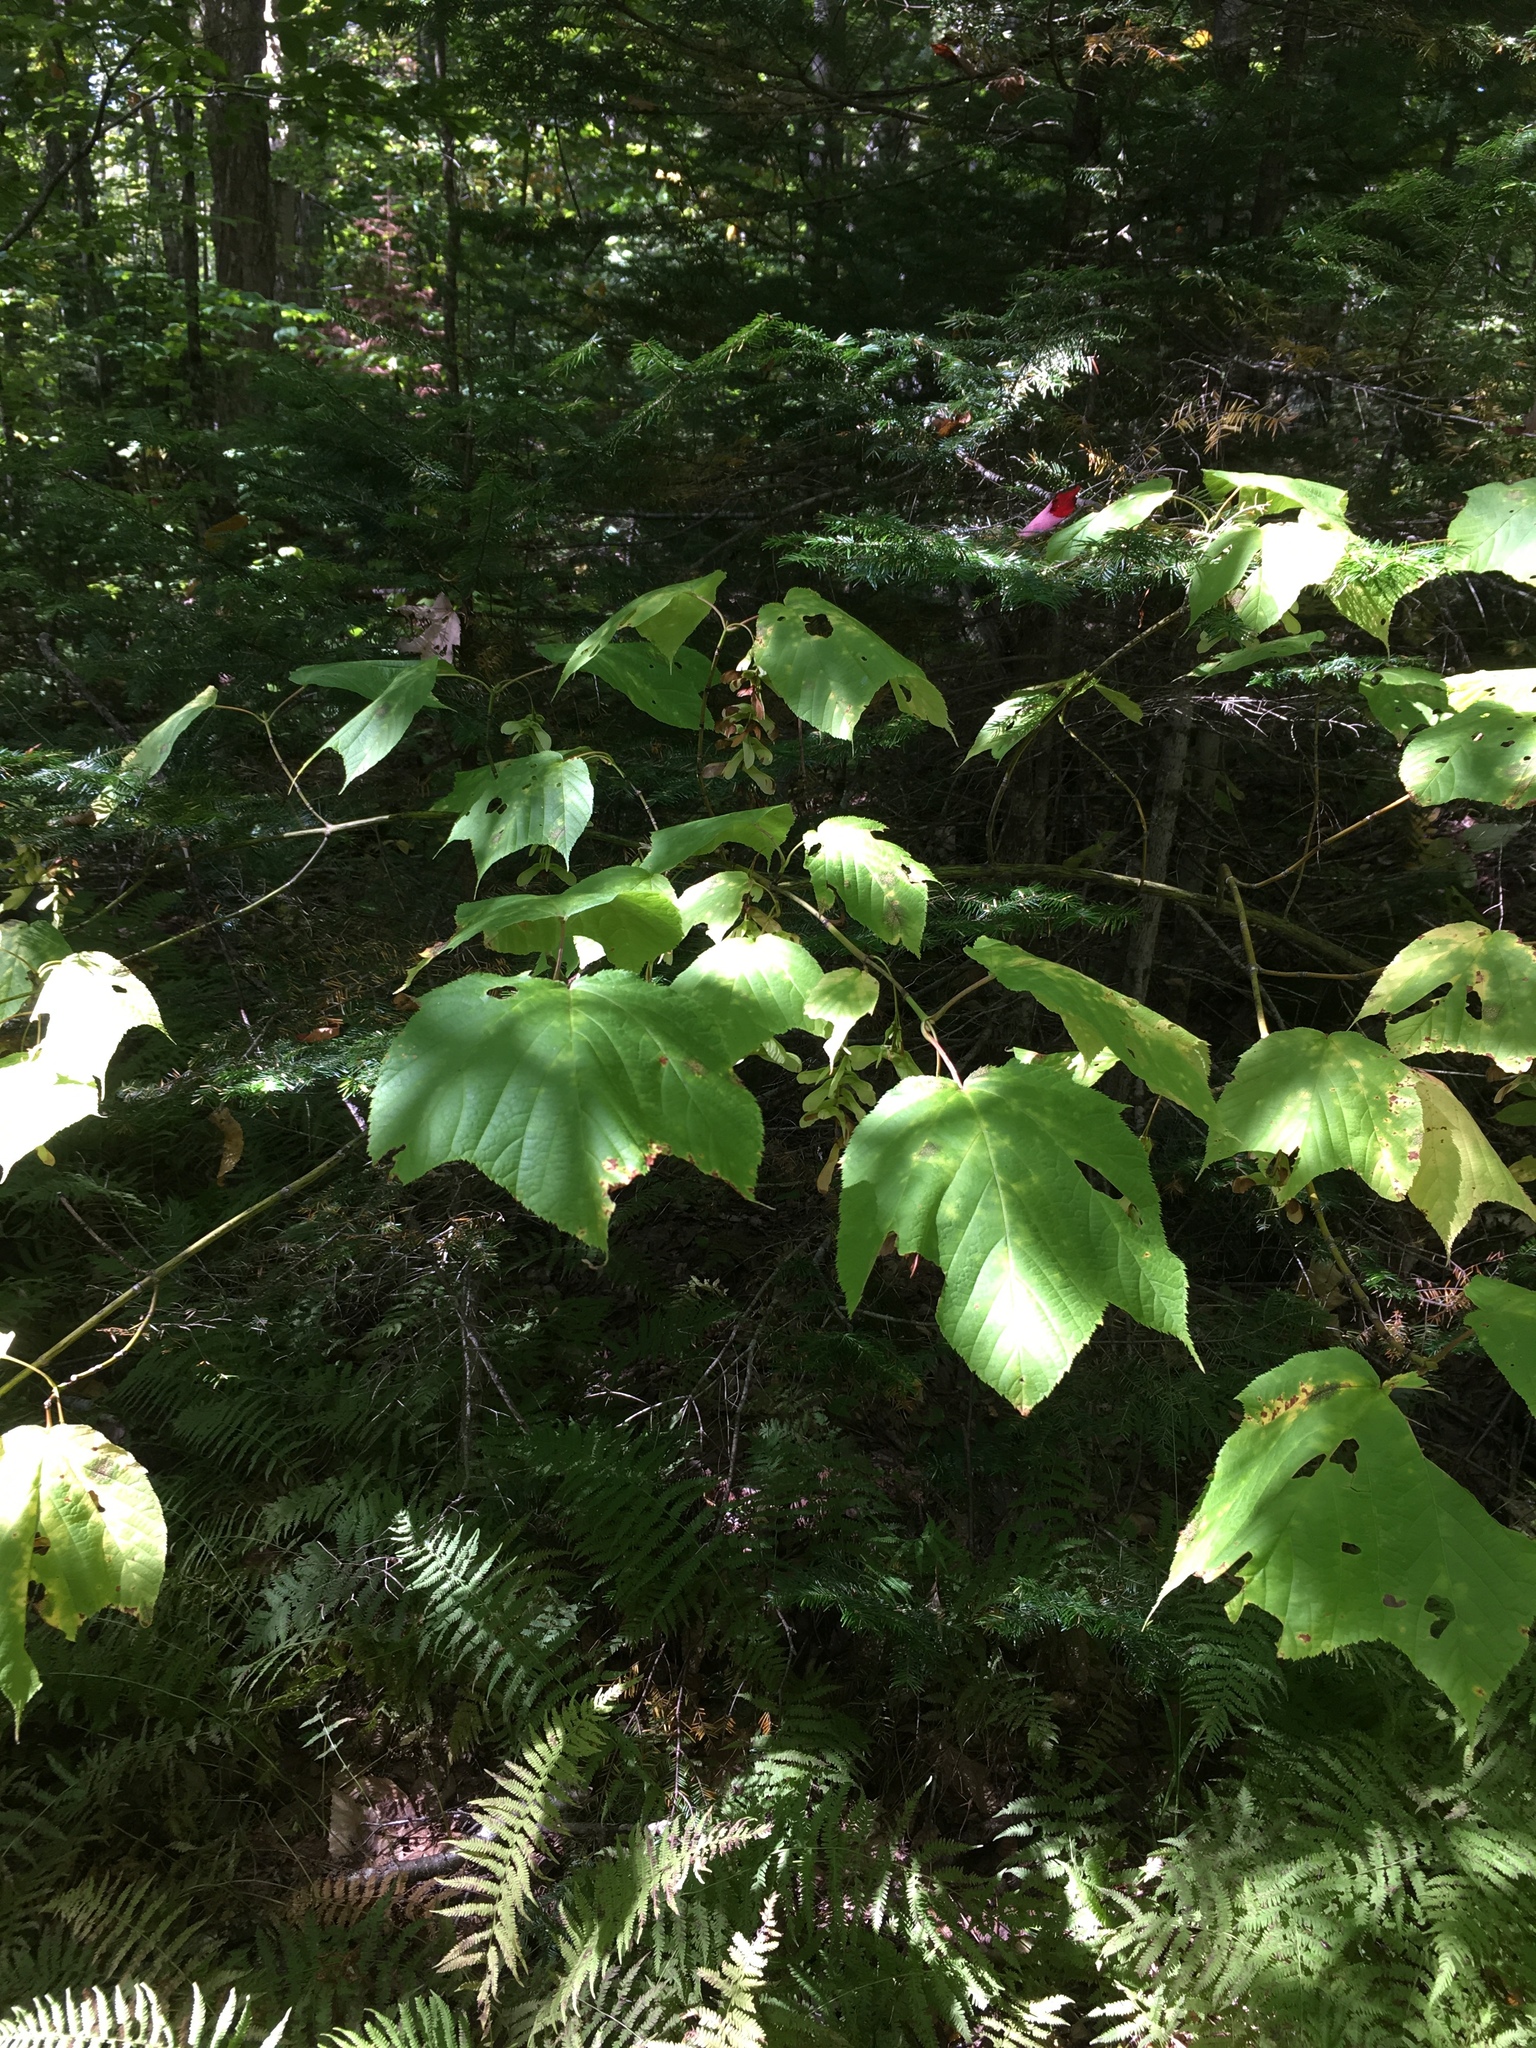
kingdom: Plantae
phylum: Tracheophyta
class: Magnoliopsida
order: Sapindales
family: Sapindaceae
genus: Acer
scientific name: Acer pensylvanicum
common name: Moosewood
